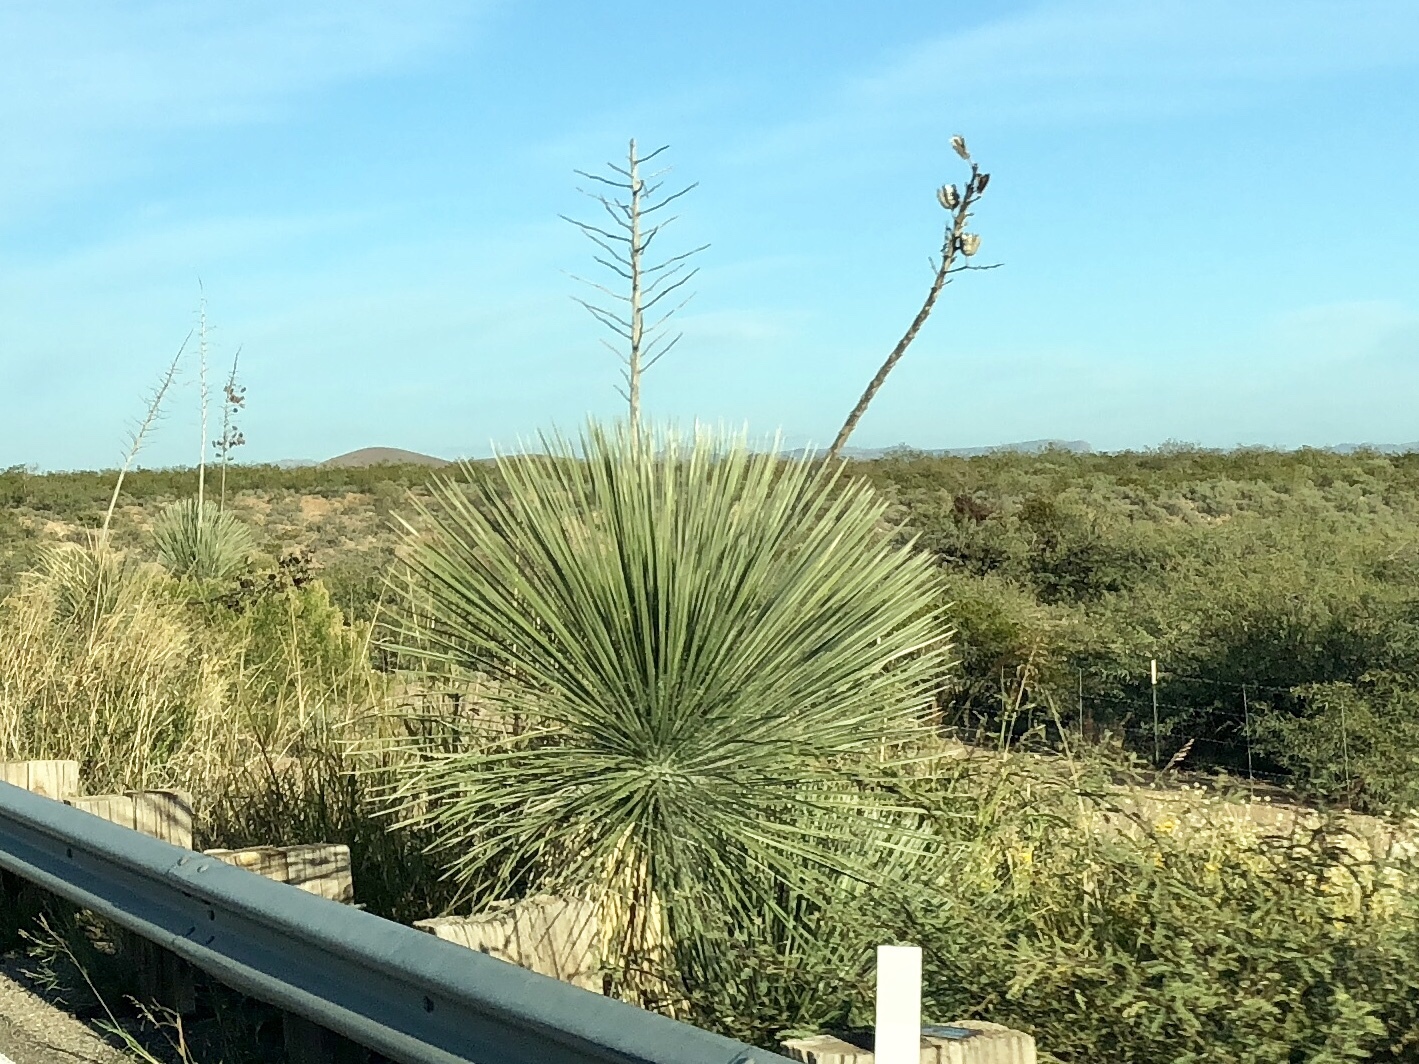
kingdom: Plantae
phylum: Tracheophyta
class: Liliopsida
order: Asparagales
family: Asparagaceae
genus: Yucca
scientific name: Yucca elata
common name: Palmella
